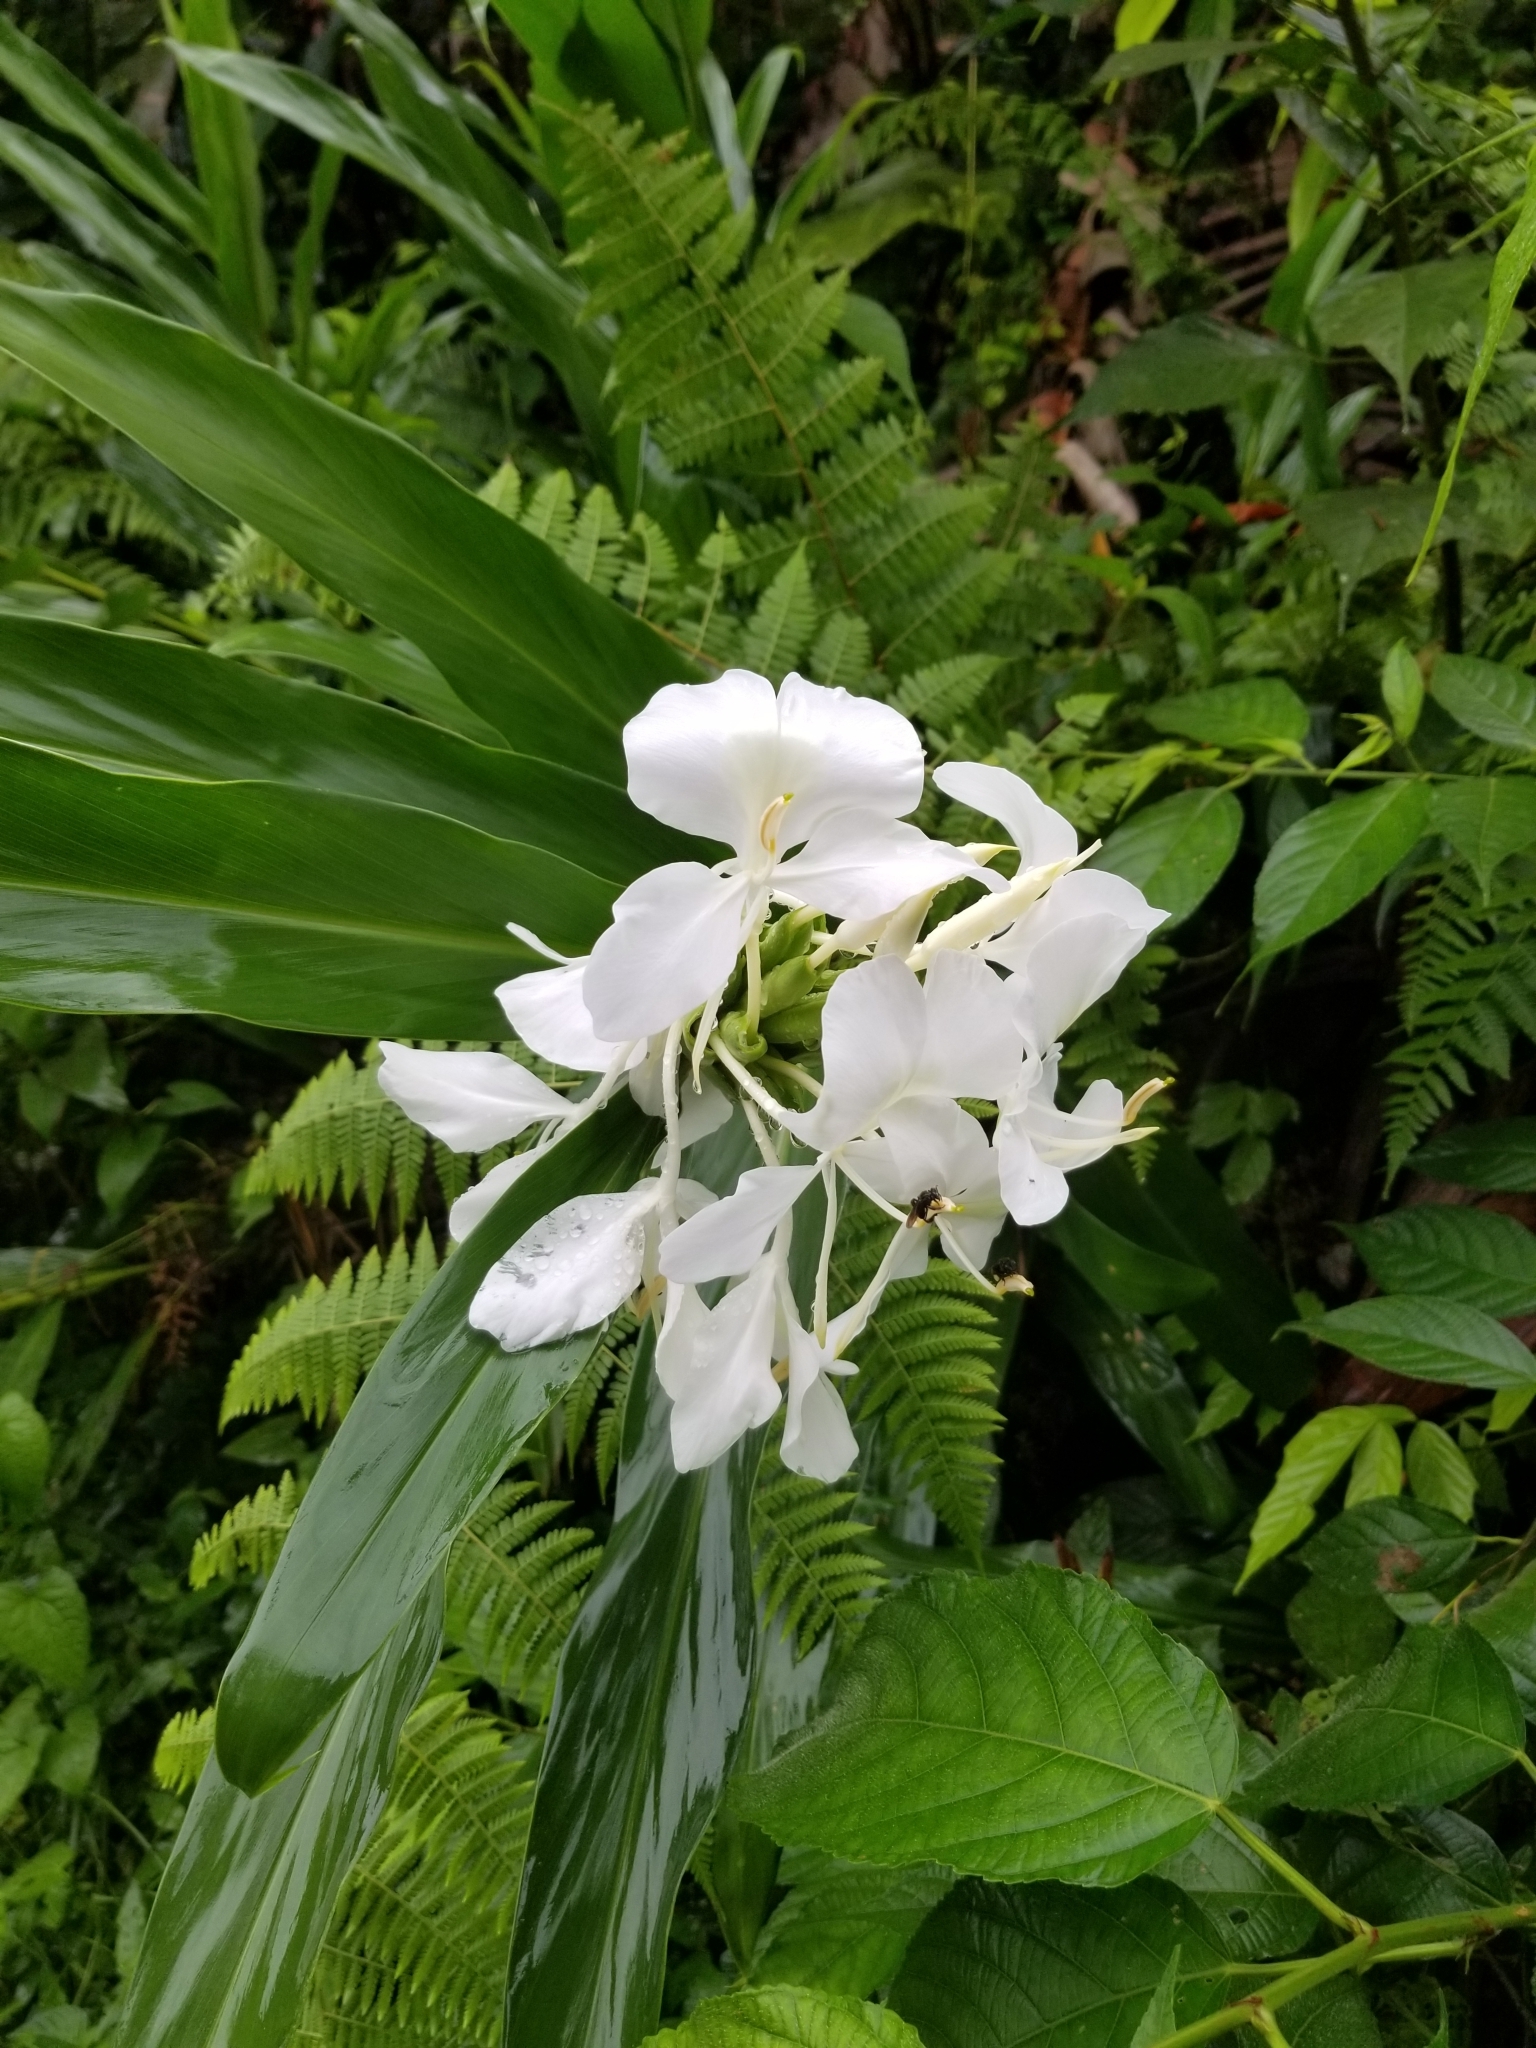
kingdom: Plantae
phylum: Tracheophyta
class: Liliopsida
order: Zingiberales
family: Zingiberaceae
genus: Hedychium
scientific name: Hedychium coronarium
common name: White garland-lily
